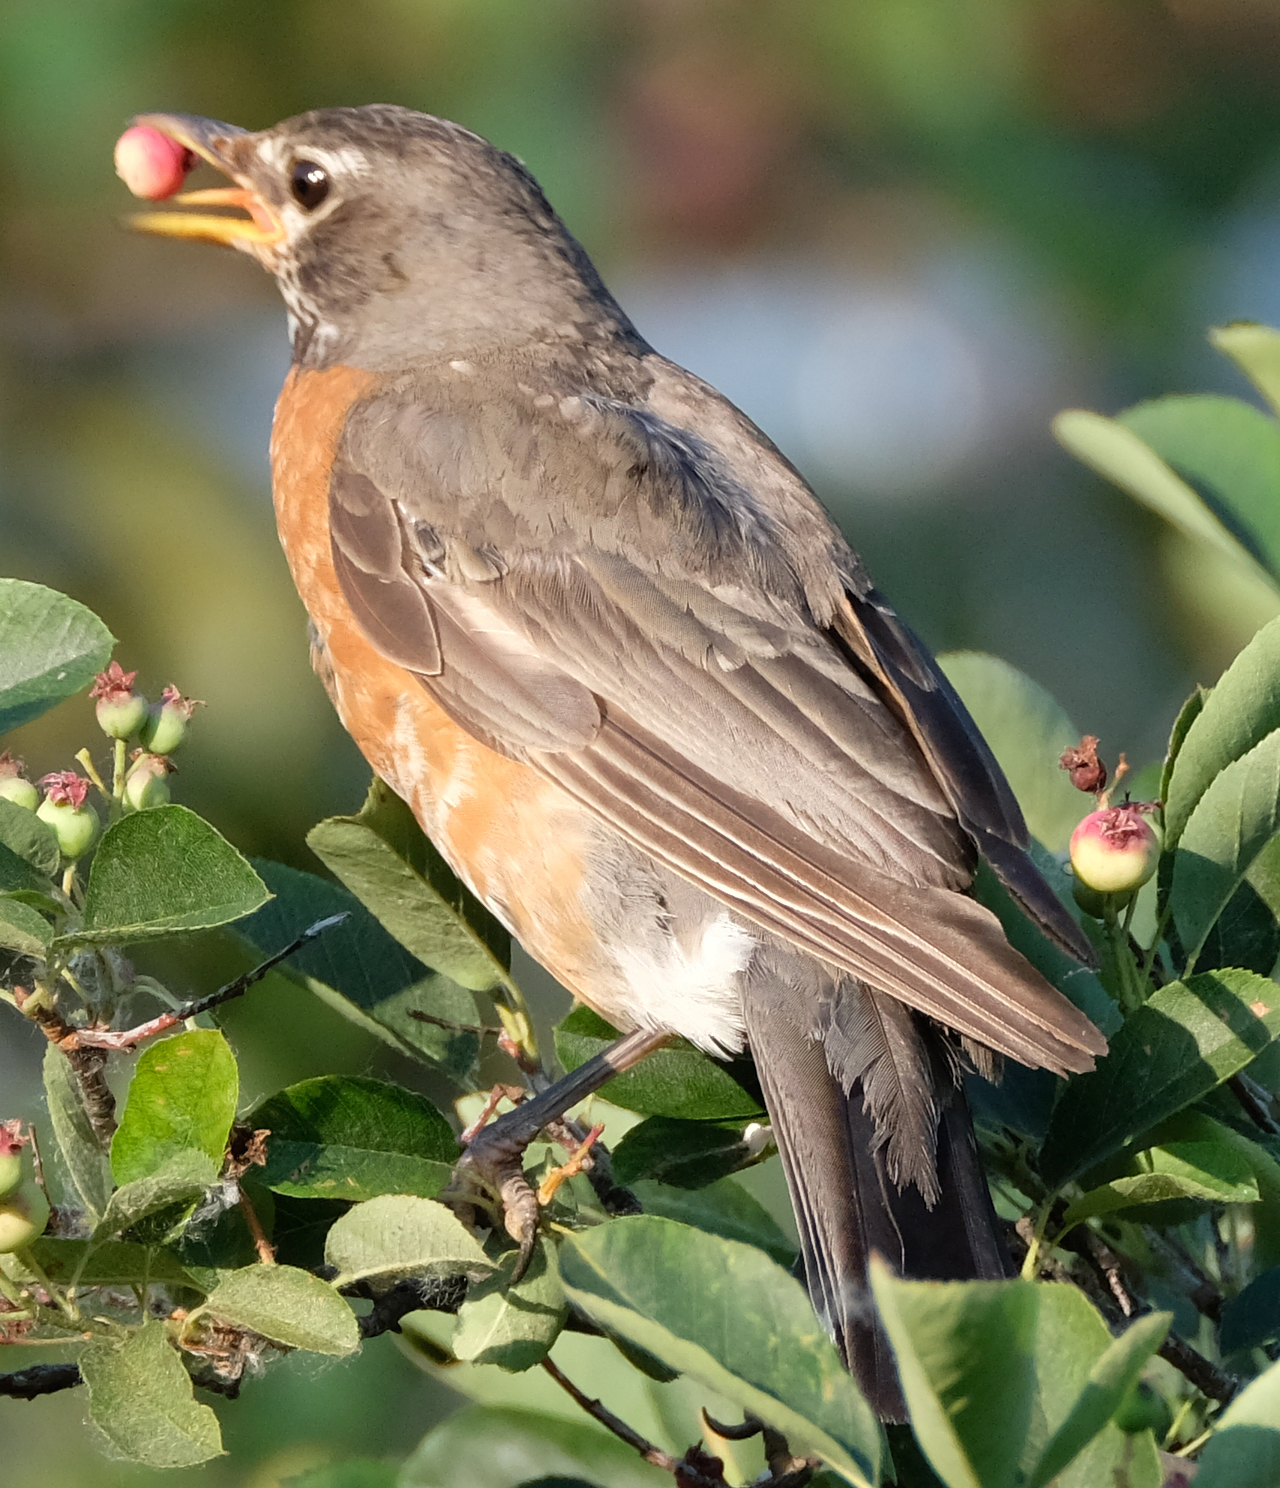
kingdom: Animalia
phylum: Chordata
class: Aves
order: Passeriformes
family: Turdidae
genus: Turdus
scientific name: Turdus migratorius
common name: American robin
